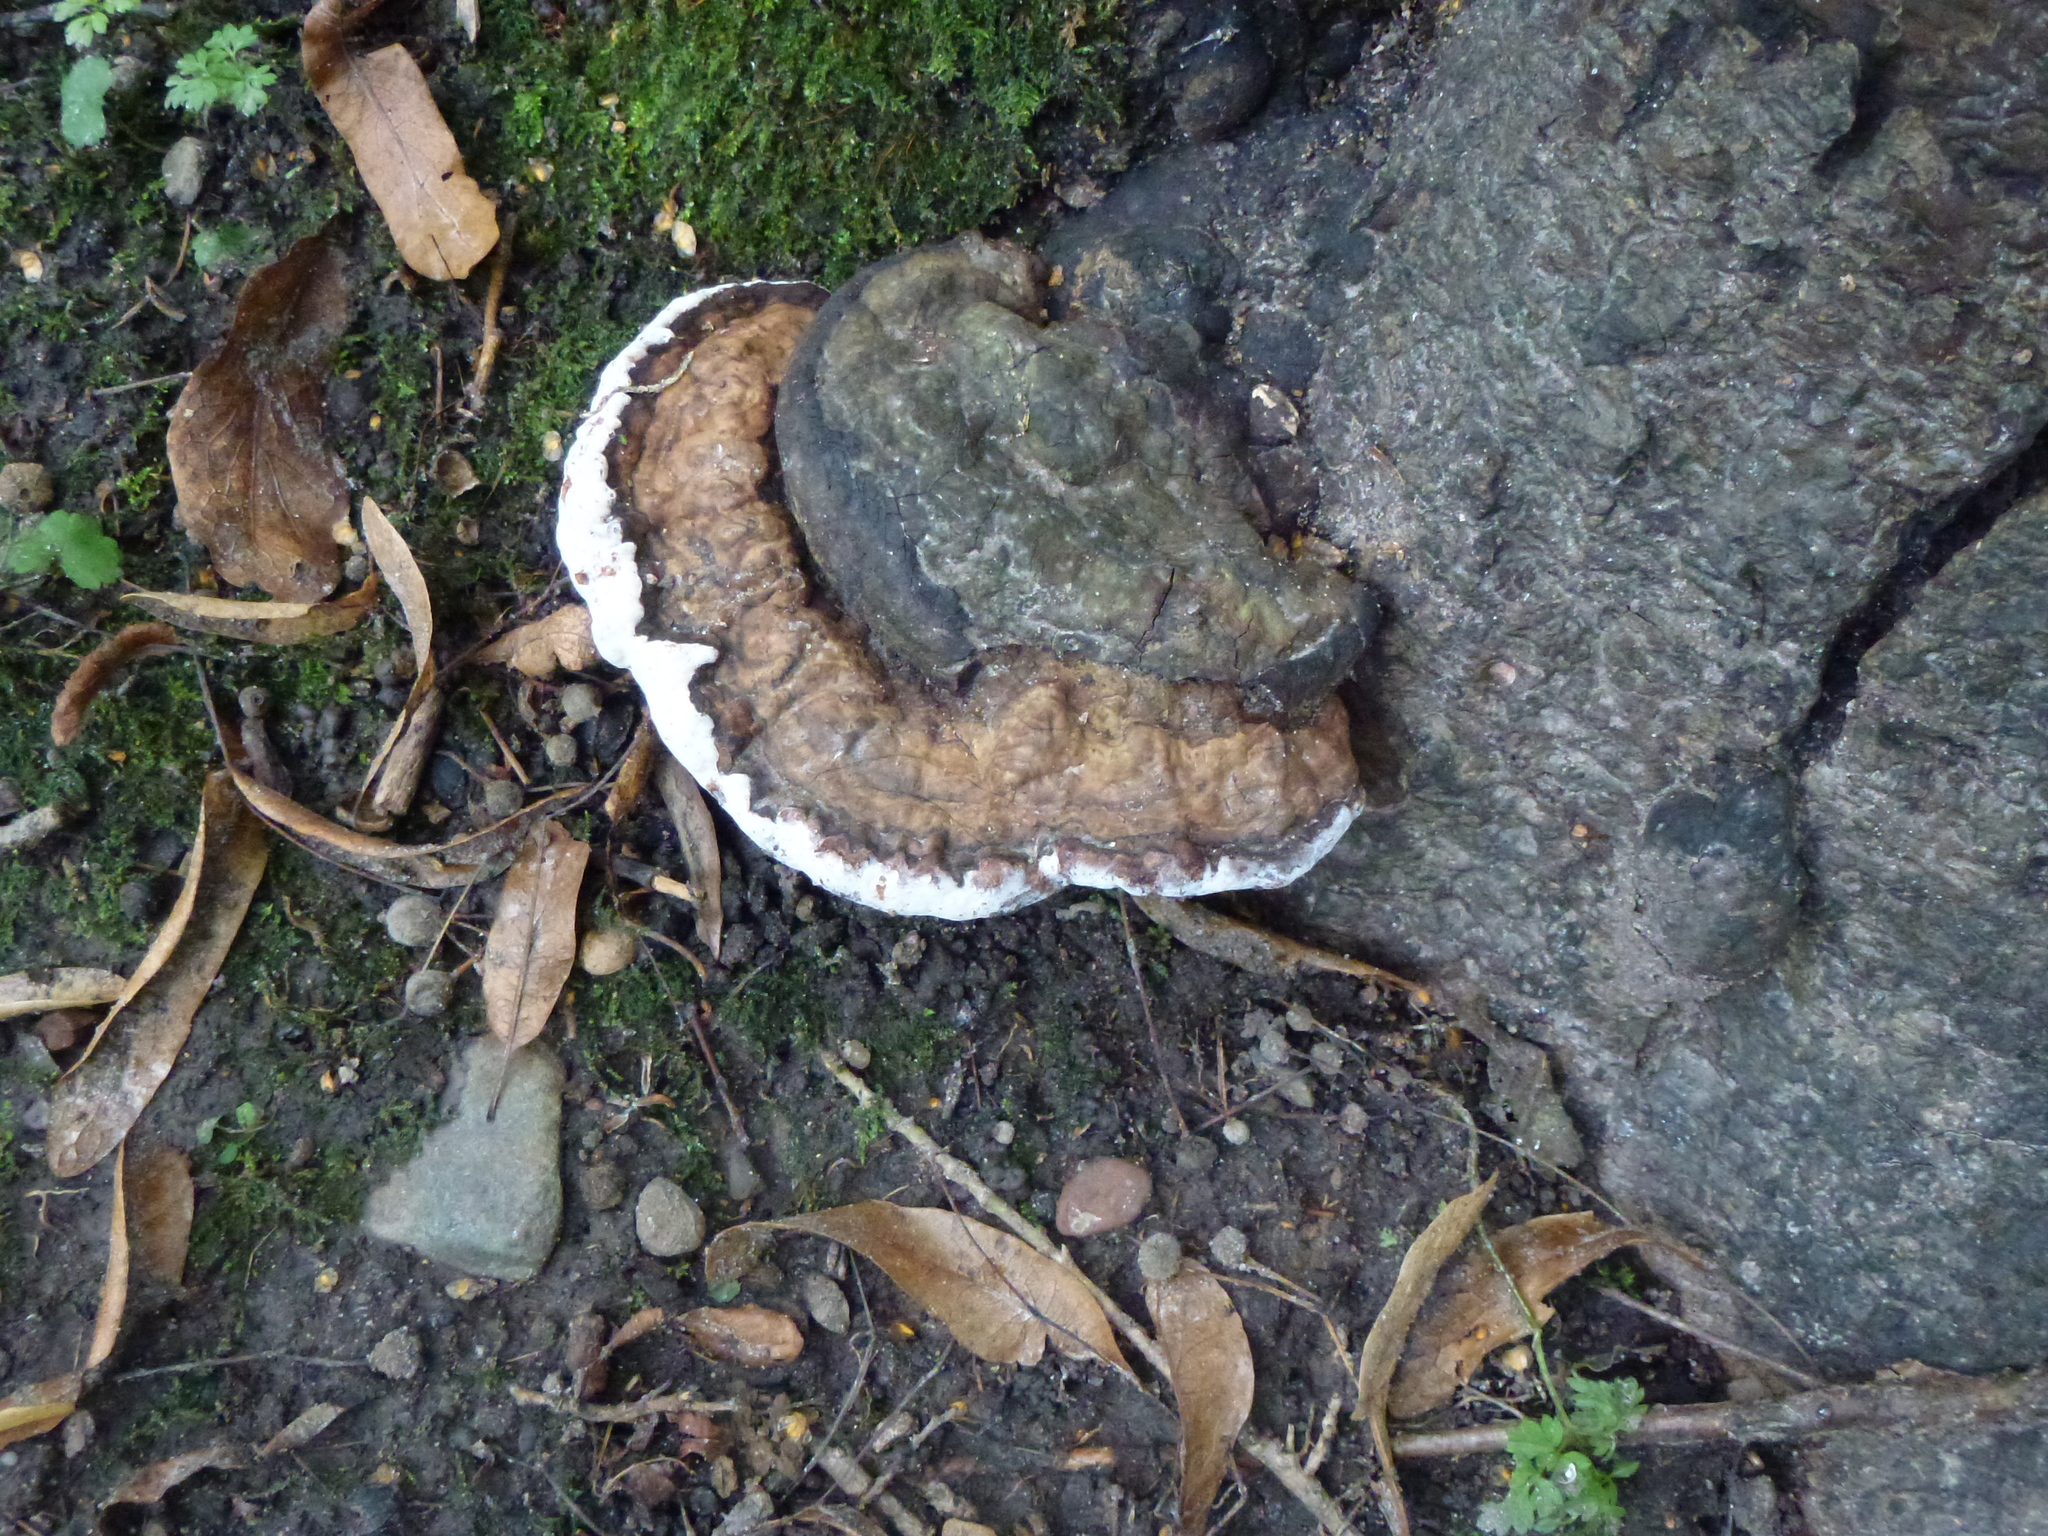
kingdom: Fungi
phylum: Basidiomycota
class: Agaricomycetes
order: Polyporales
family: Polyporaceae
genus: Ganoderma
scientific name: Ganoderma applanatum
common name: Artist's bracket
